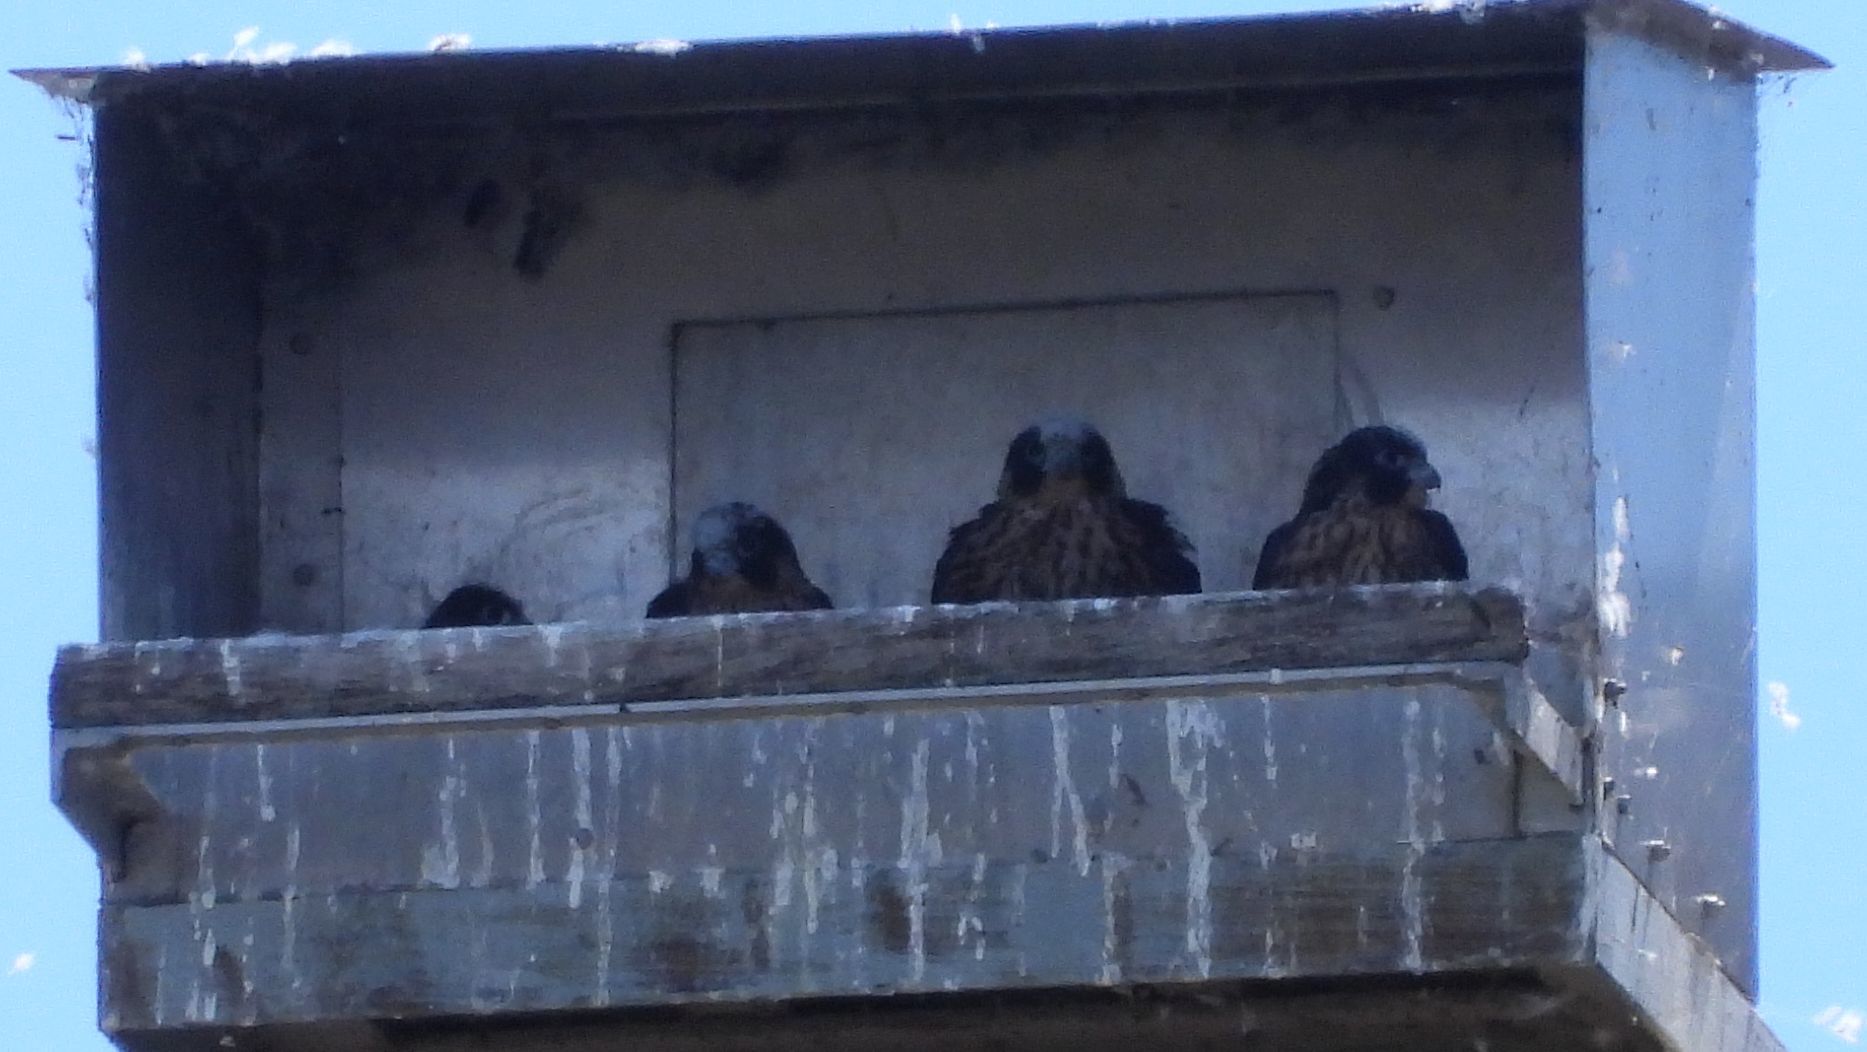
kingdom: Animalia
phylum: Chordata
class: Aves
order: Falconiformes
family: Falconidae
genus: Falco
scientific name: Falco peregrinus
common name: Peregrine falcon
